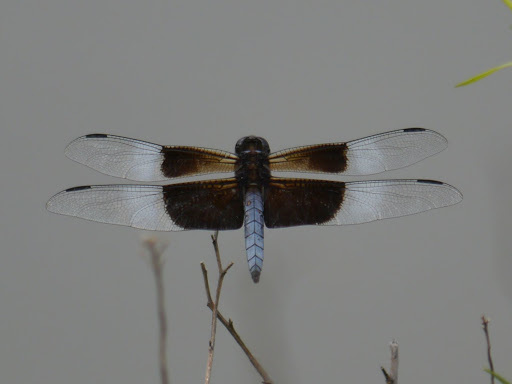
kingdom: Animalia
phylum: Arthropoda
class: Insecta
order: Odonata
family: Libellulidae
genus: Libellula
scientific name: Libellula luctuosa
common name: Widow skimmer
